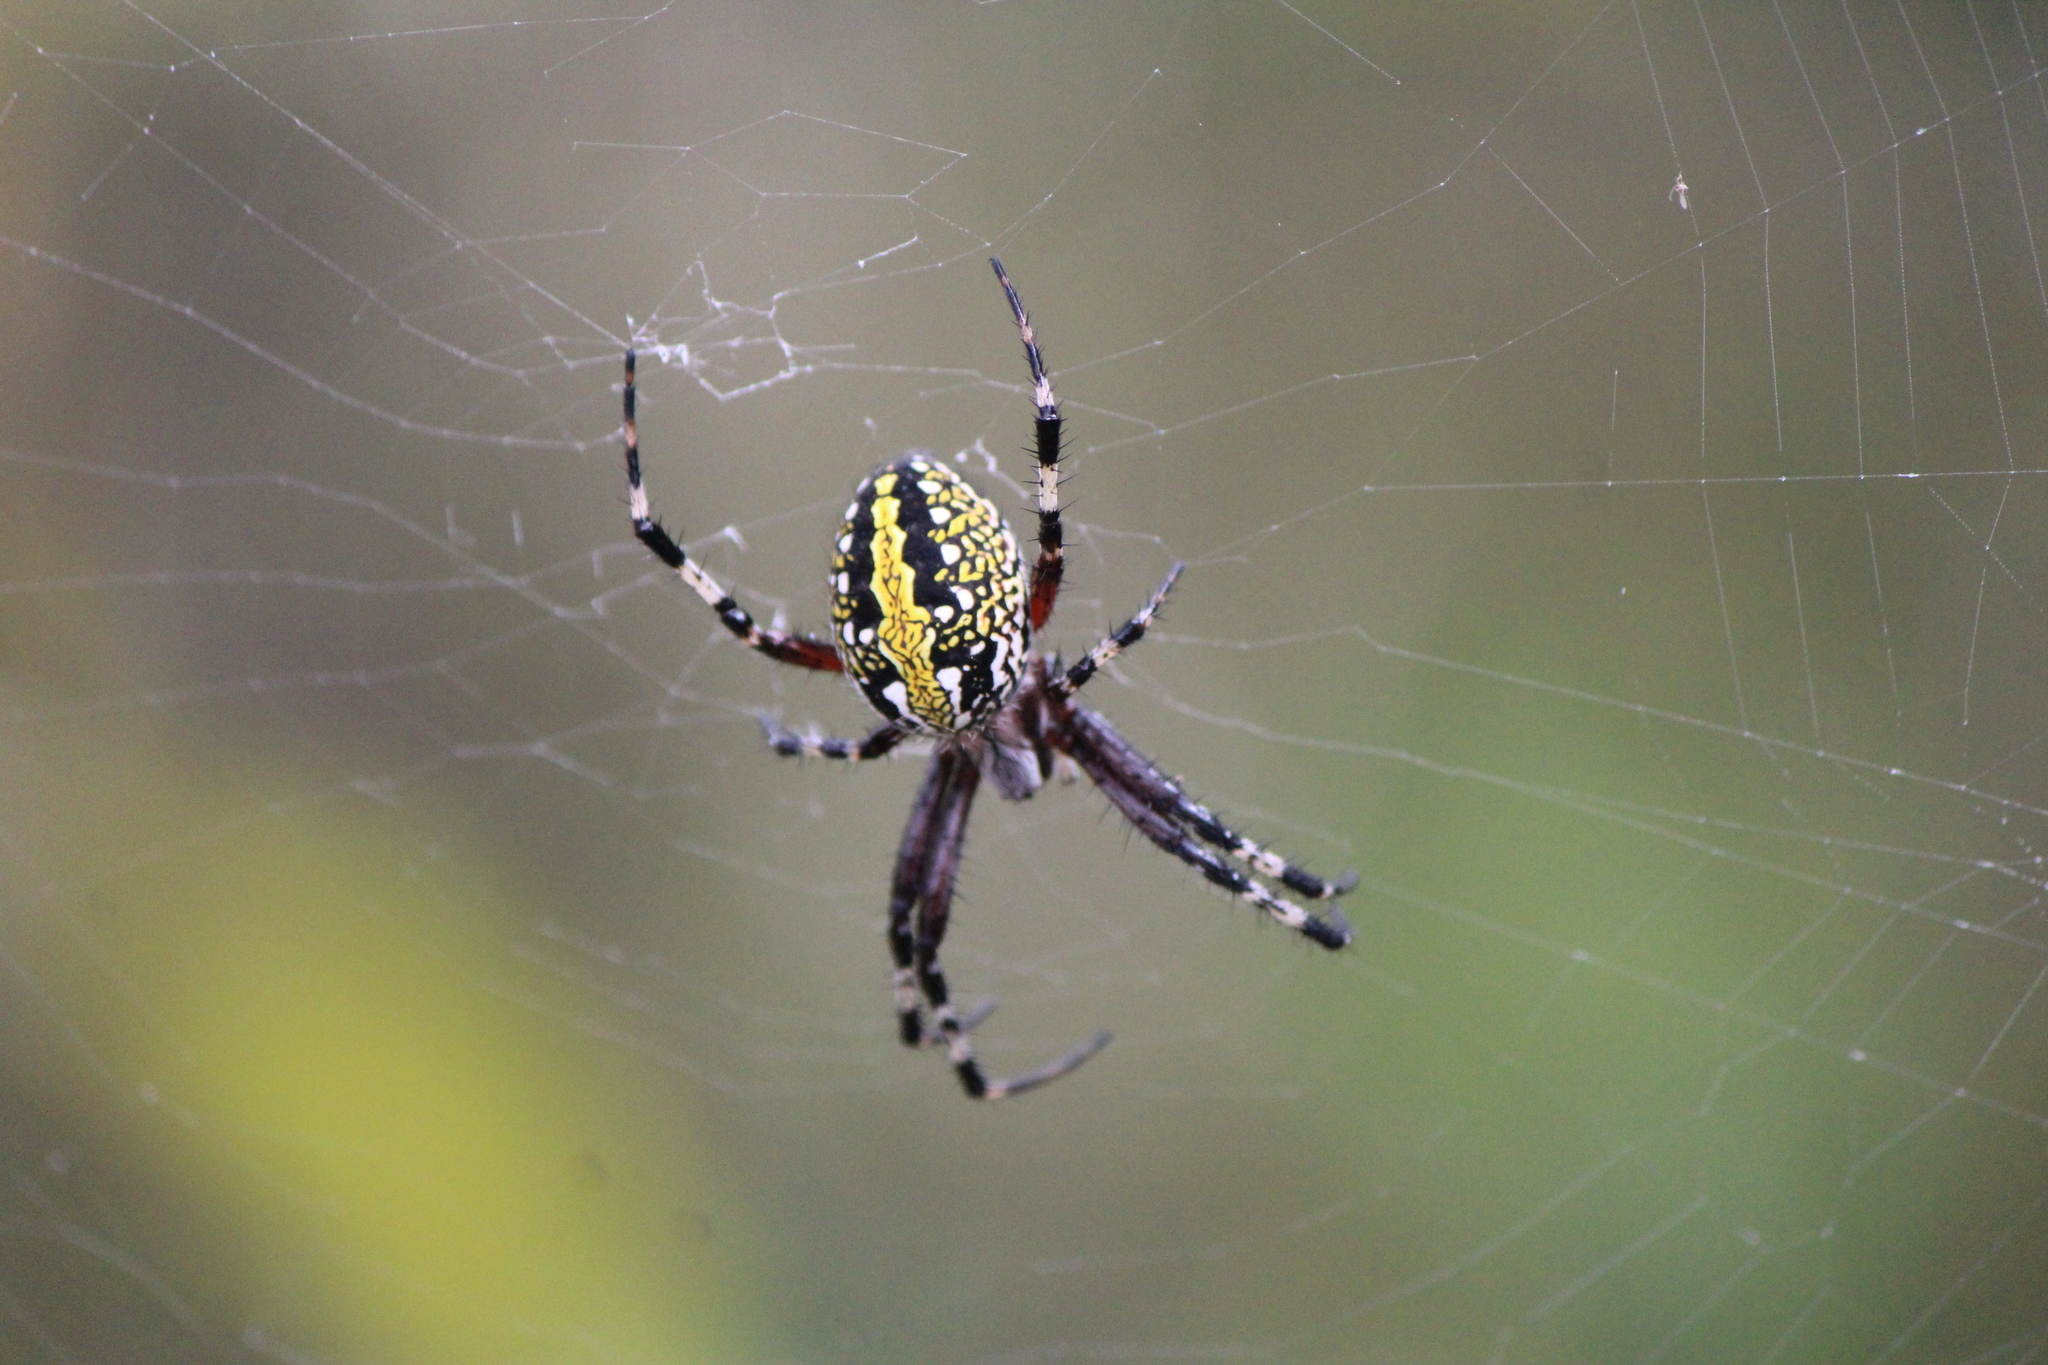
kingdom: Animalia
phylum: Arthropoda
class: Arachnida
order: Araneae
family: Araneidae
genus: Neoscona
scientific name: Neoscona oaxacensis
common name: Orb weavers
